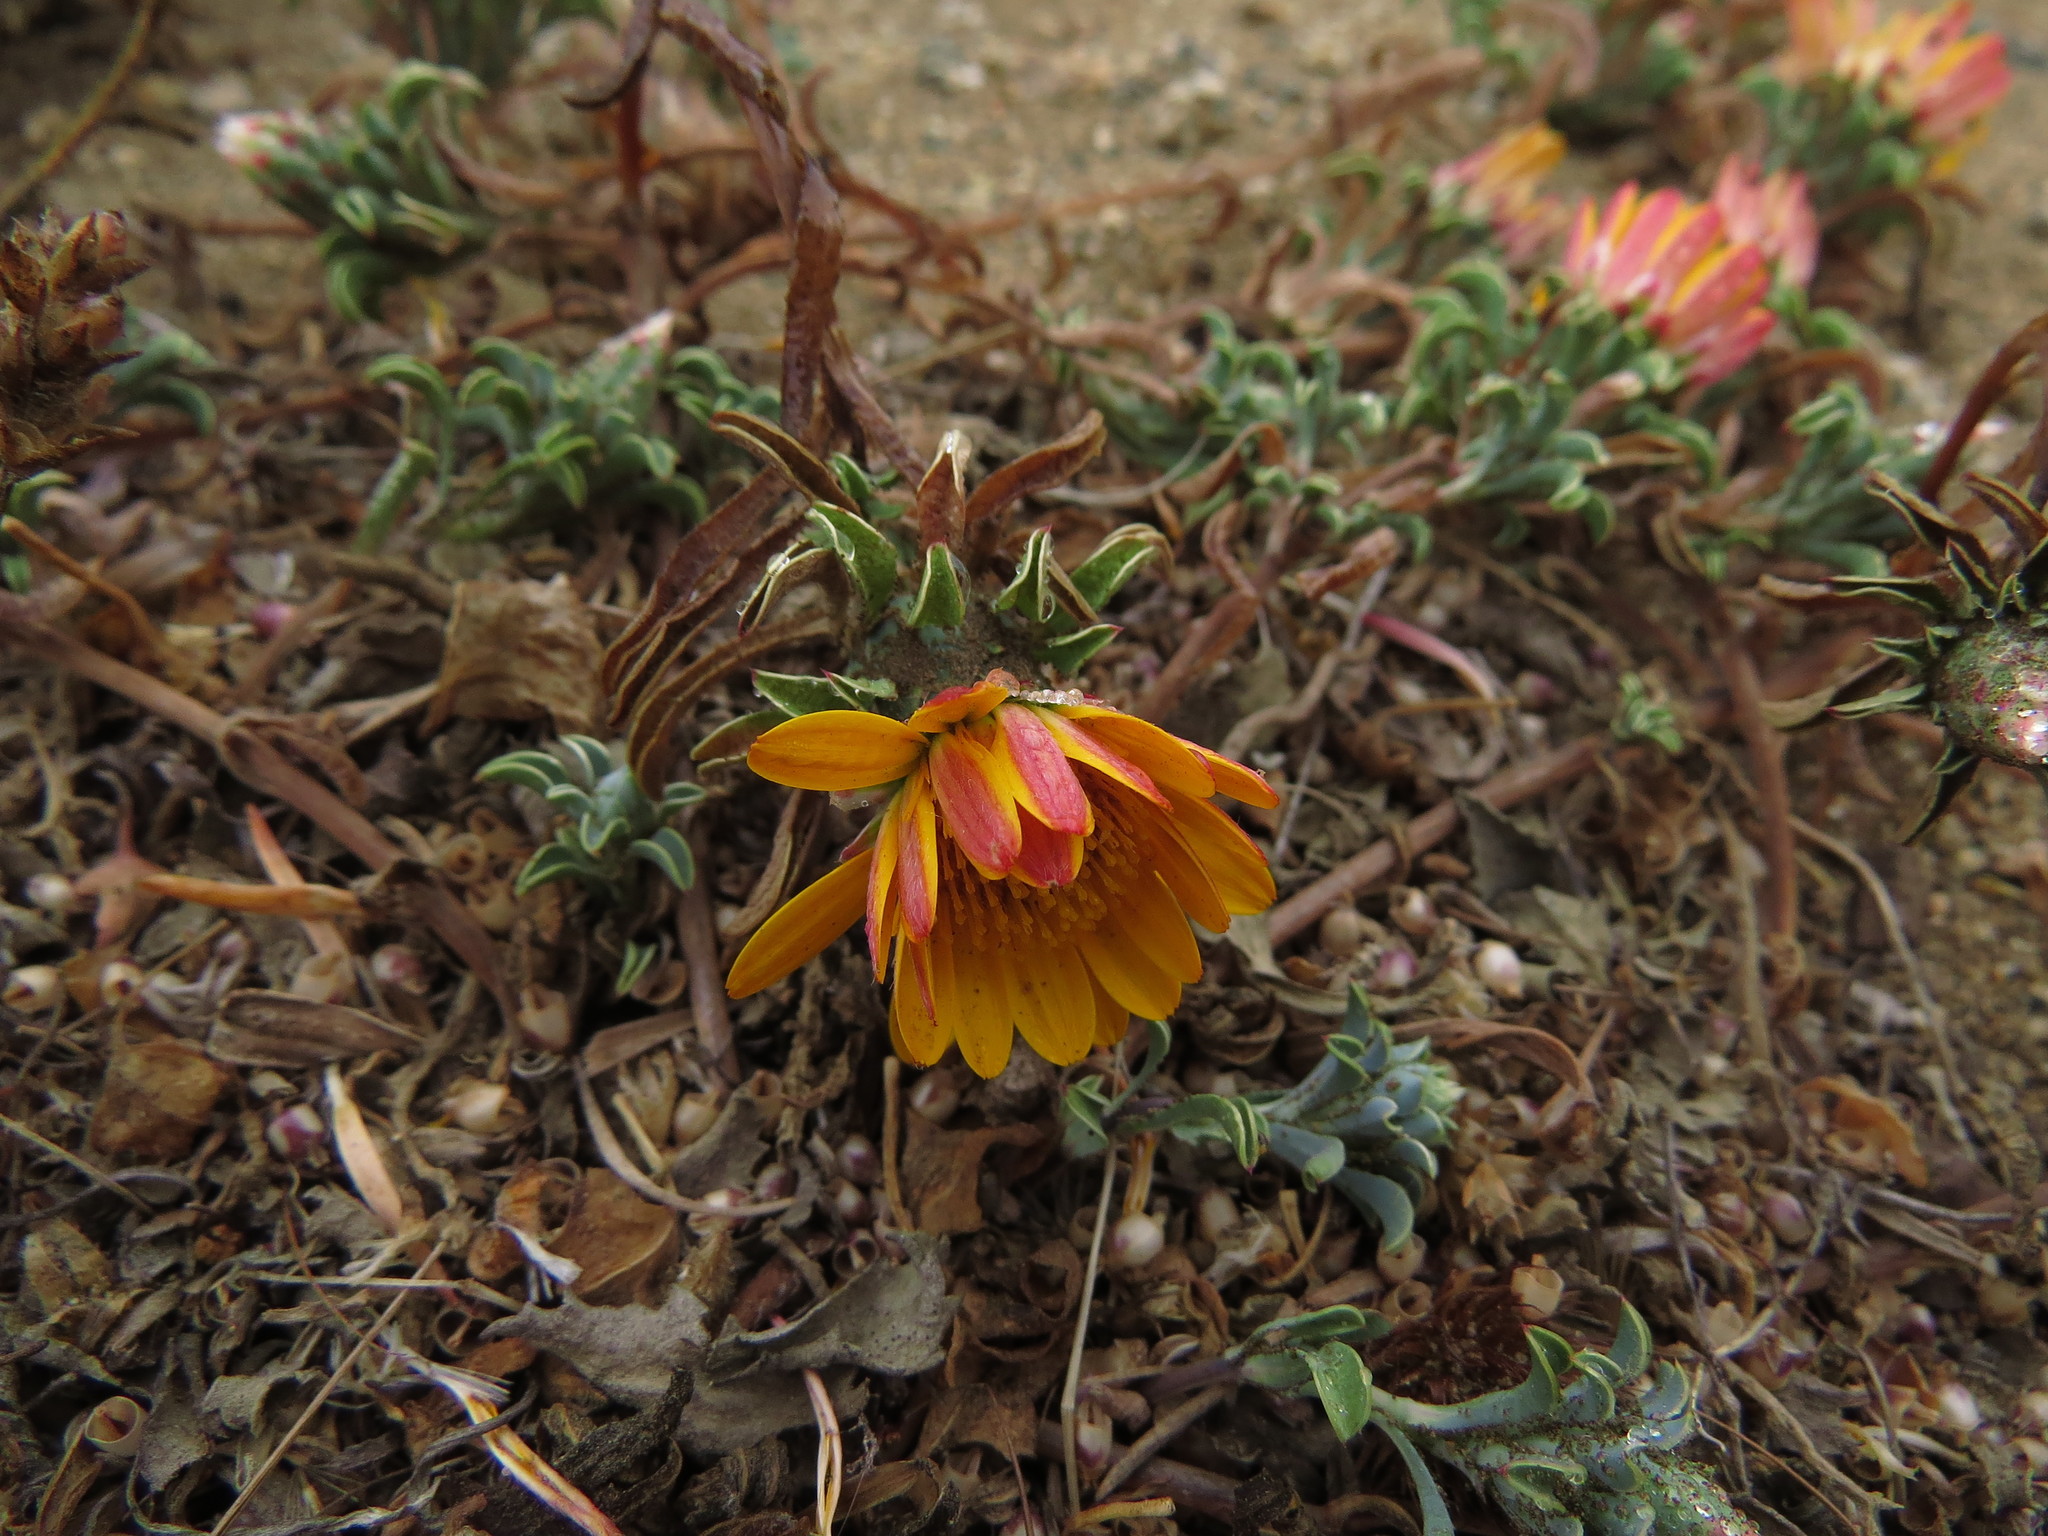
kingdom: Plantae
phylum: Tracheophyta
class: Magnoliopsida
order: Asterales
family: Asteraceae
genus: Chaetanthera
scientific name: Chaetanthera frayjorgensis
